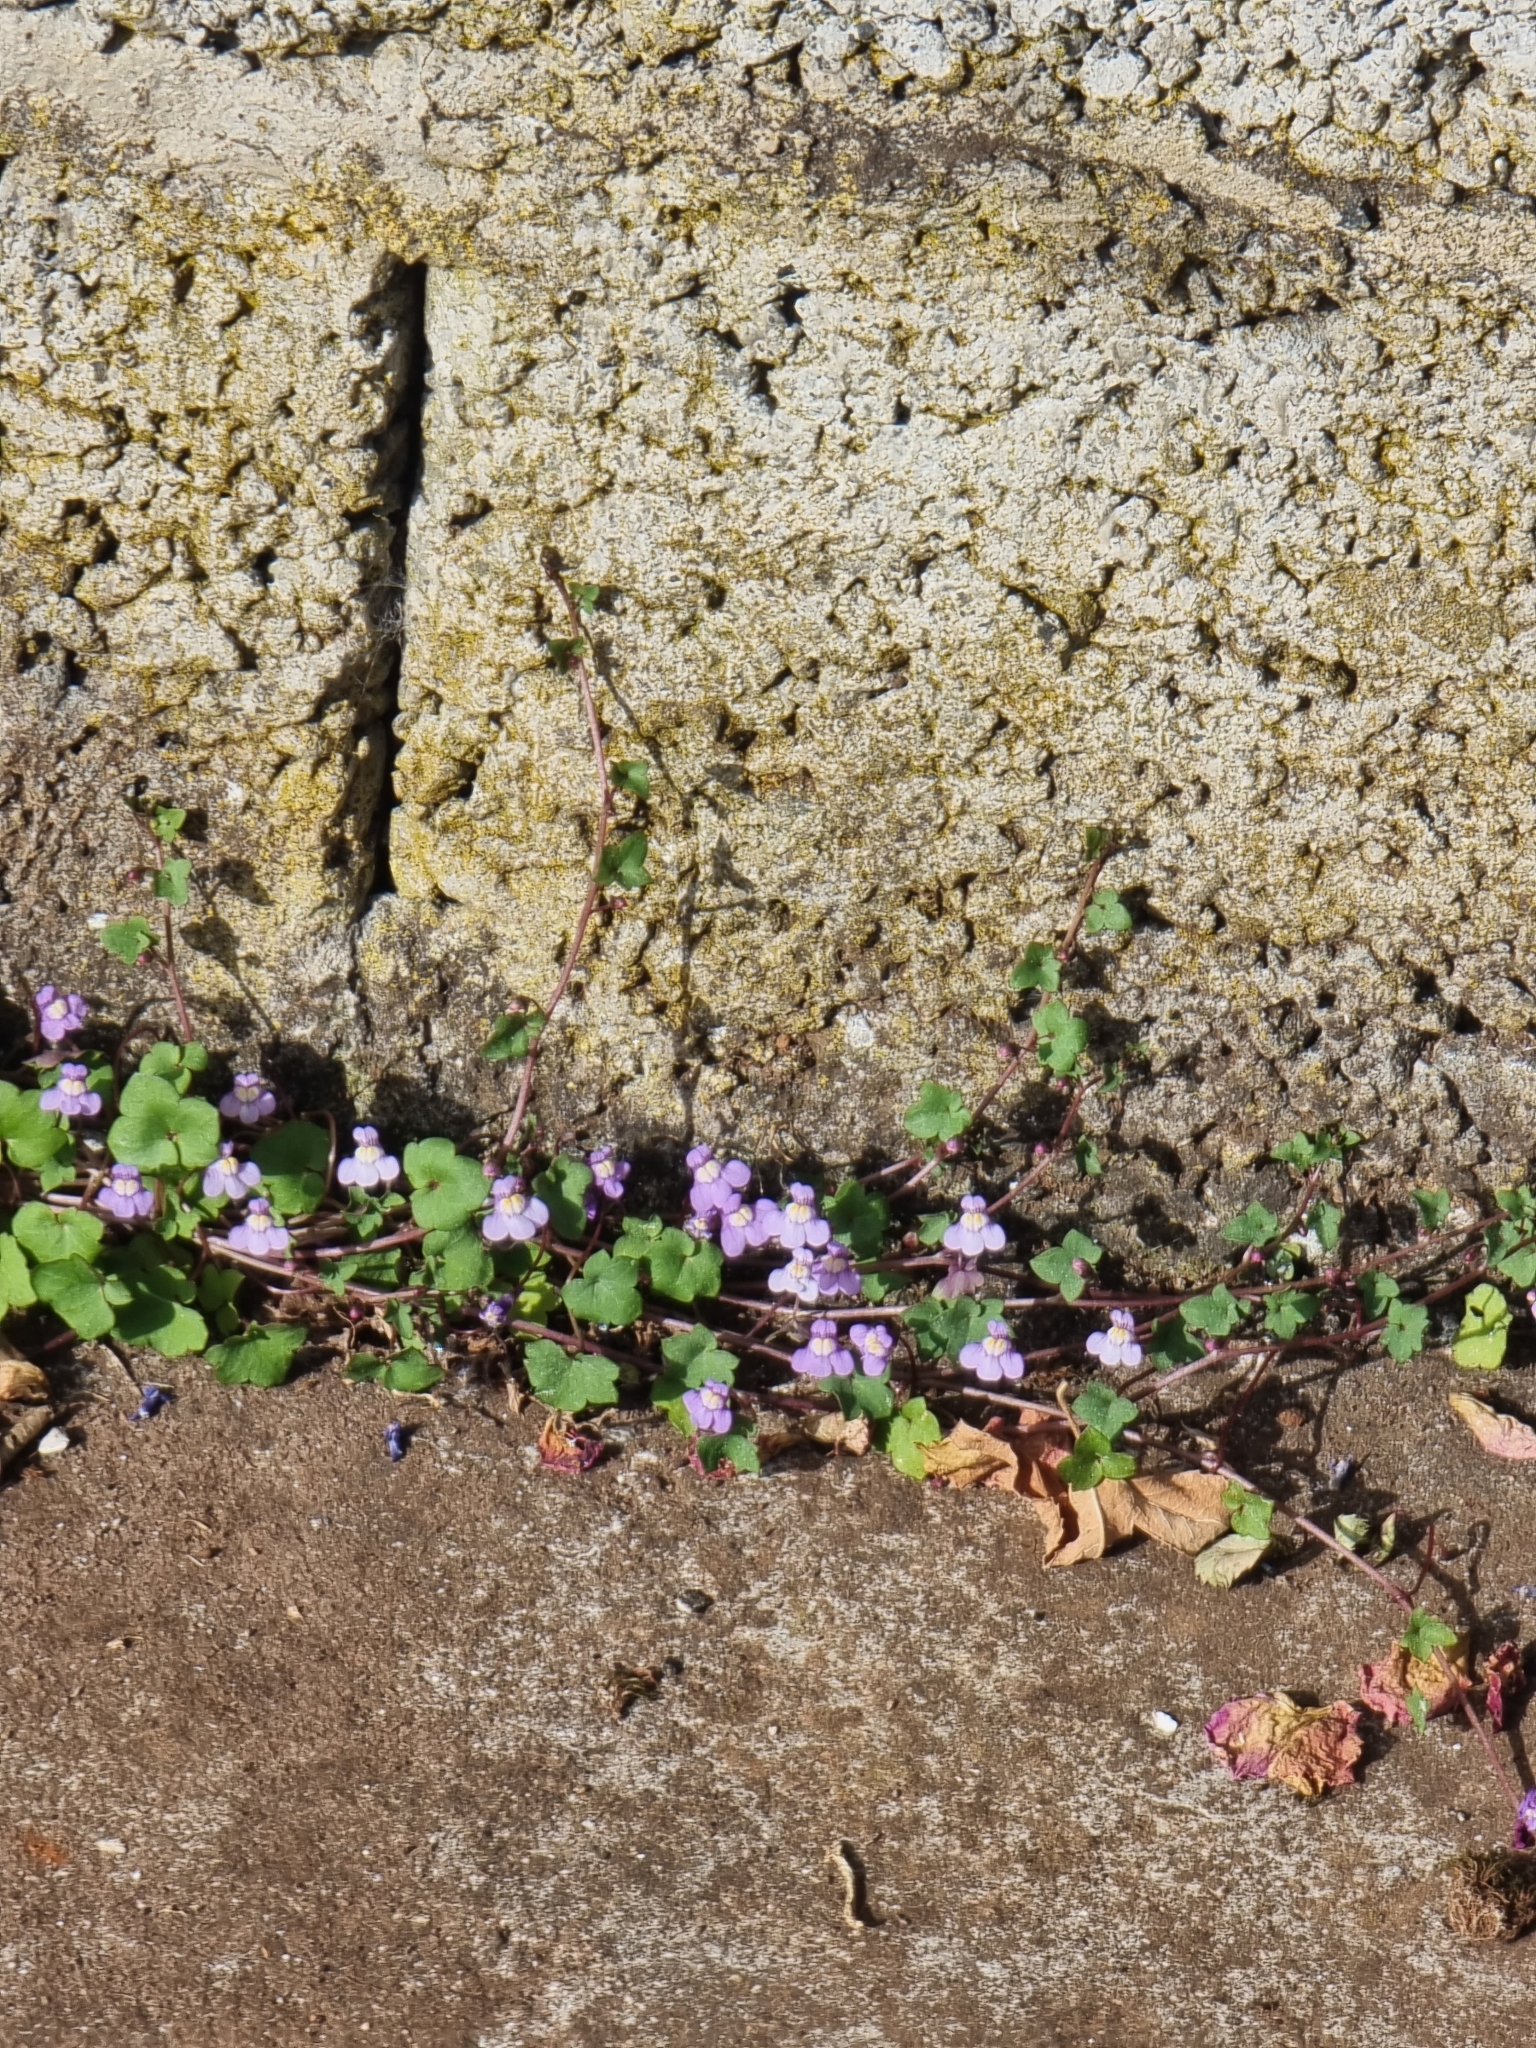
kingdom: Plantae
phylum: Tracheophyta
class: Magnoliopsida
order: Lamiales
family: Plantaginaceae
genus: Cymbalaria
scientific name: Cymbalaria muralis
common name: Ivy-leaved toadflax
